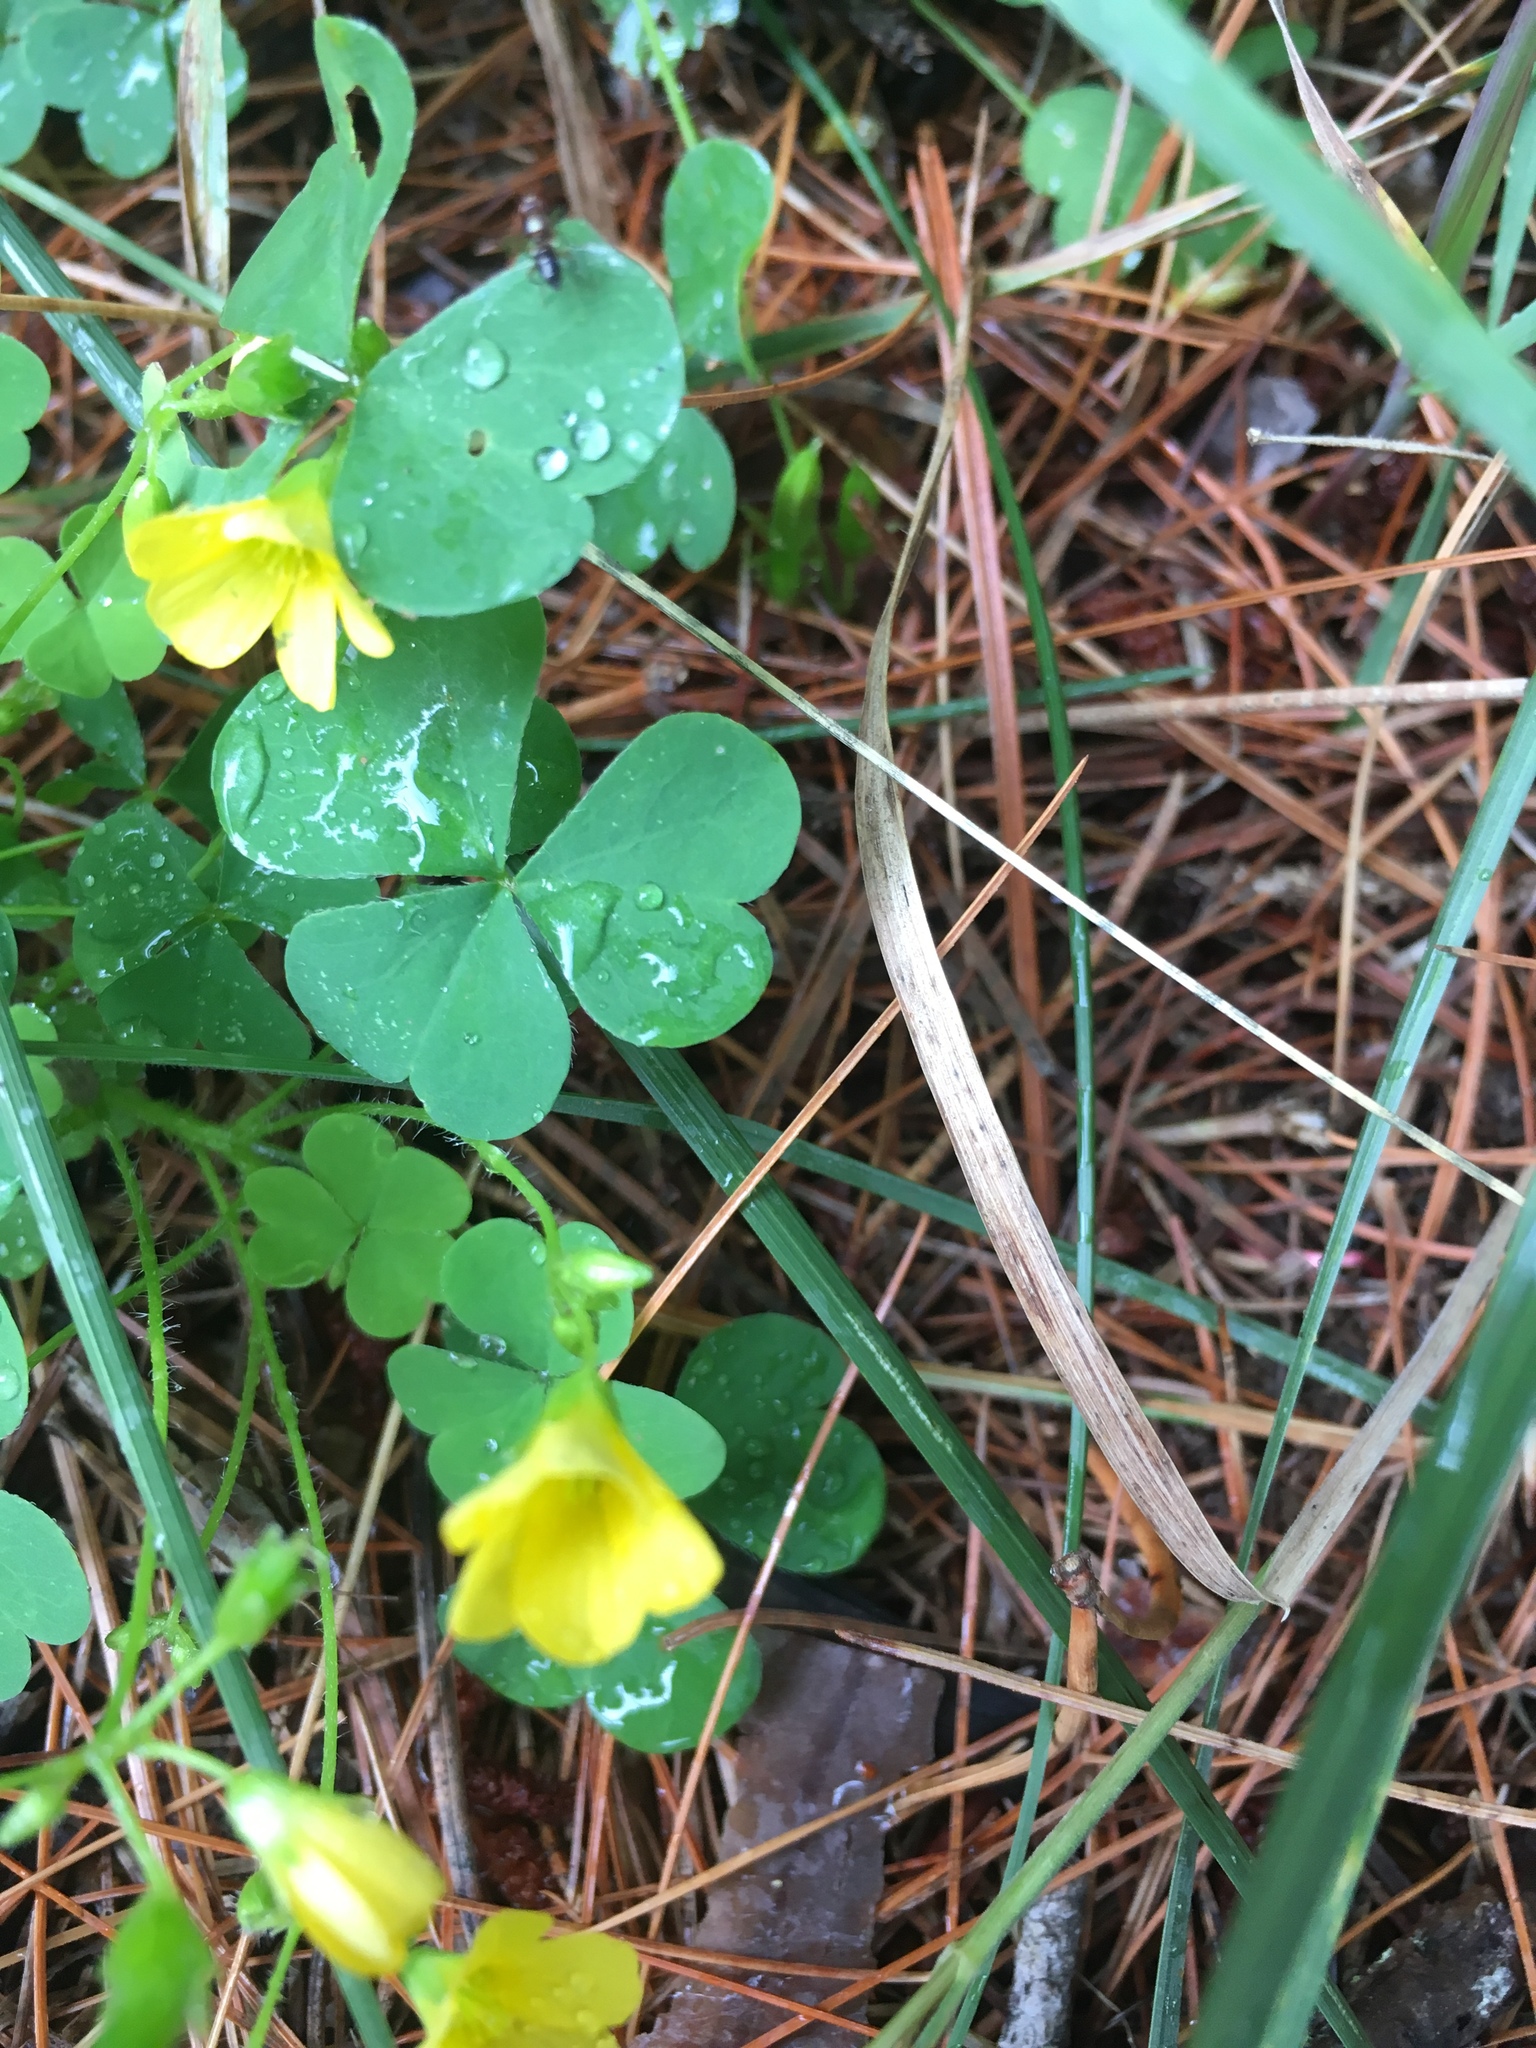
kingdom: Plantae
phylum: Tracheophyta
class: Magnoliopsida
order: Oxalidales
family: Oxalidaceae
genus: Oxalis
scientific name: Oxalis stricta
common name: Upright yellow-sorrel
